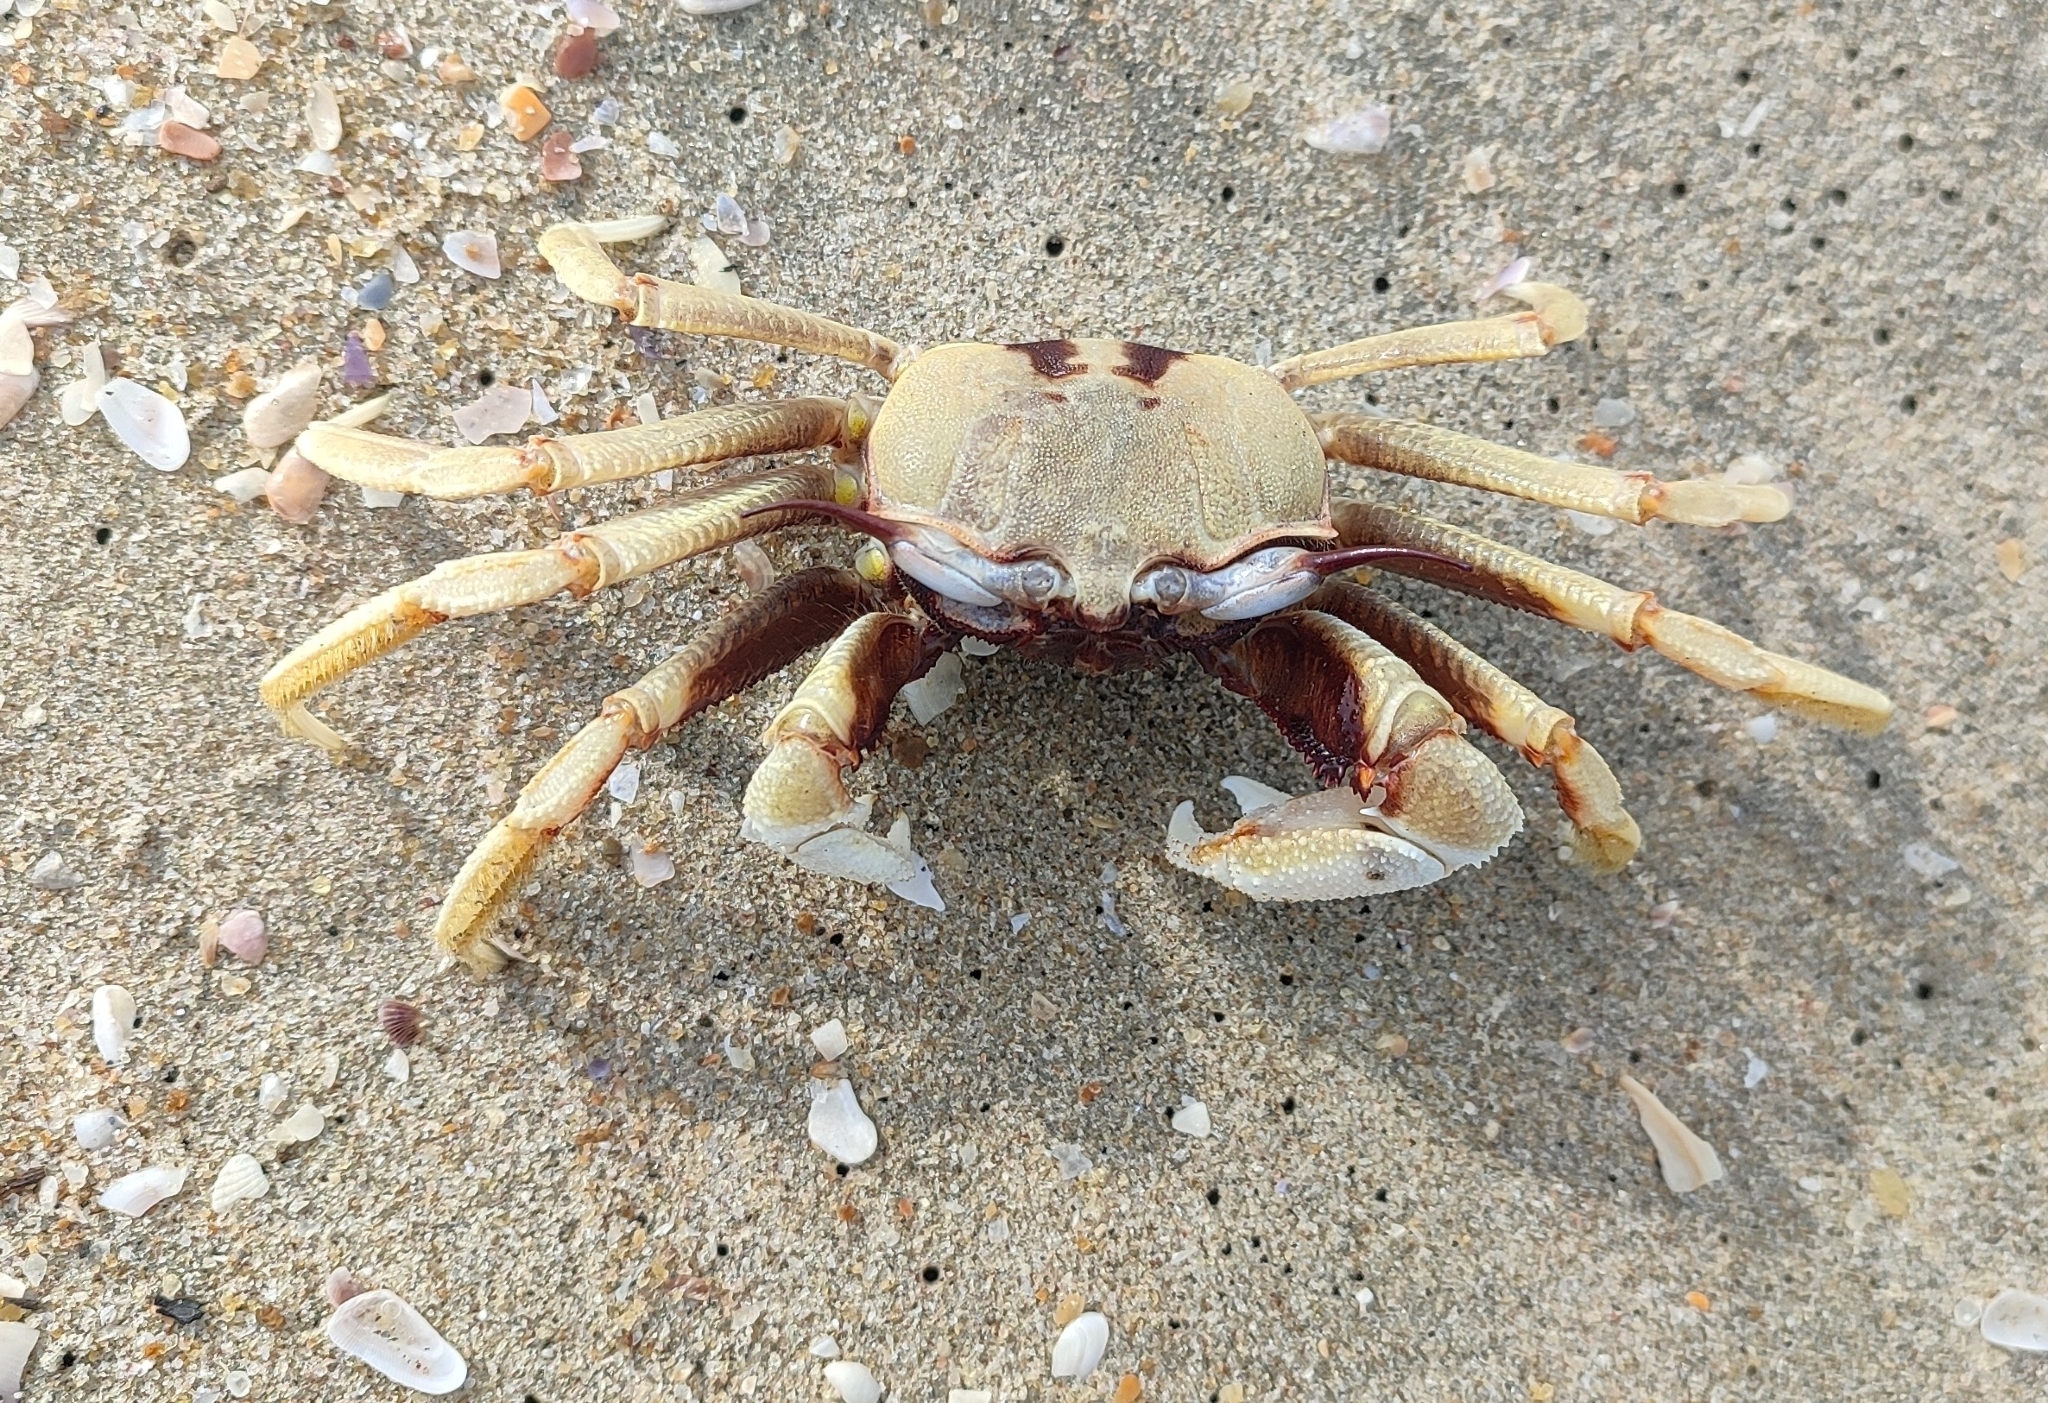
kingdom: Animalia
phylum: Arthropoda
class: Malacostraca
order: Decapoda
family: Ocypodidae
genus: Ocypode
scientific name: Ocypode ceratophthalmus
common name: Indo-pacific ghost crab
